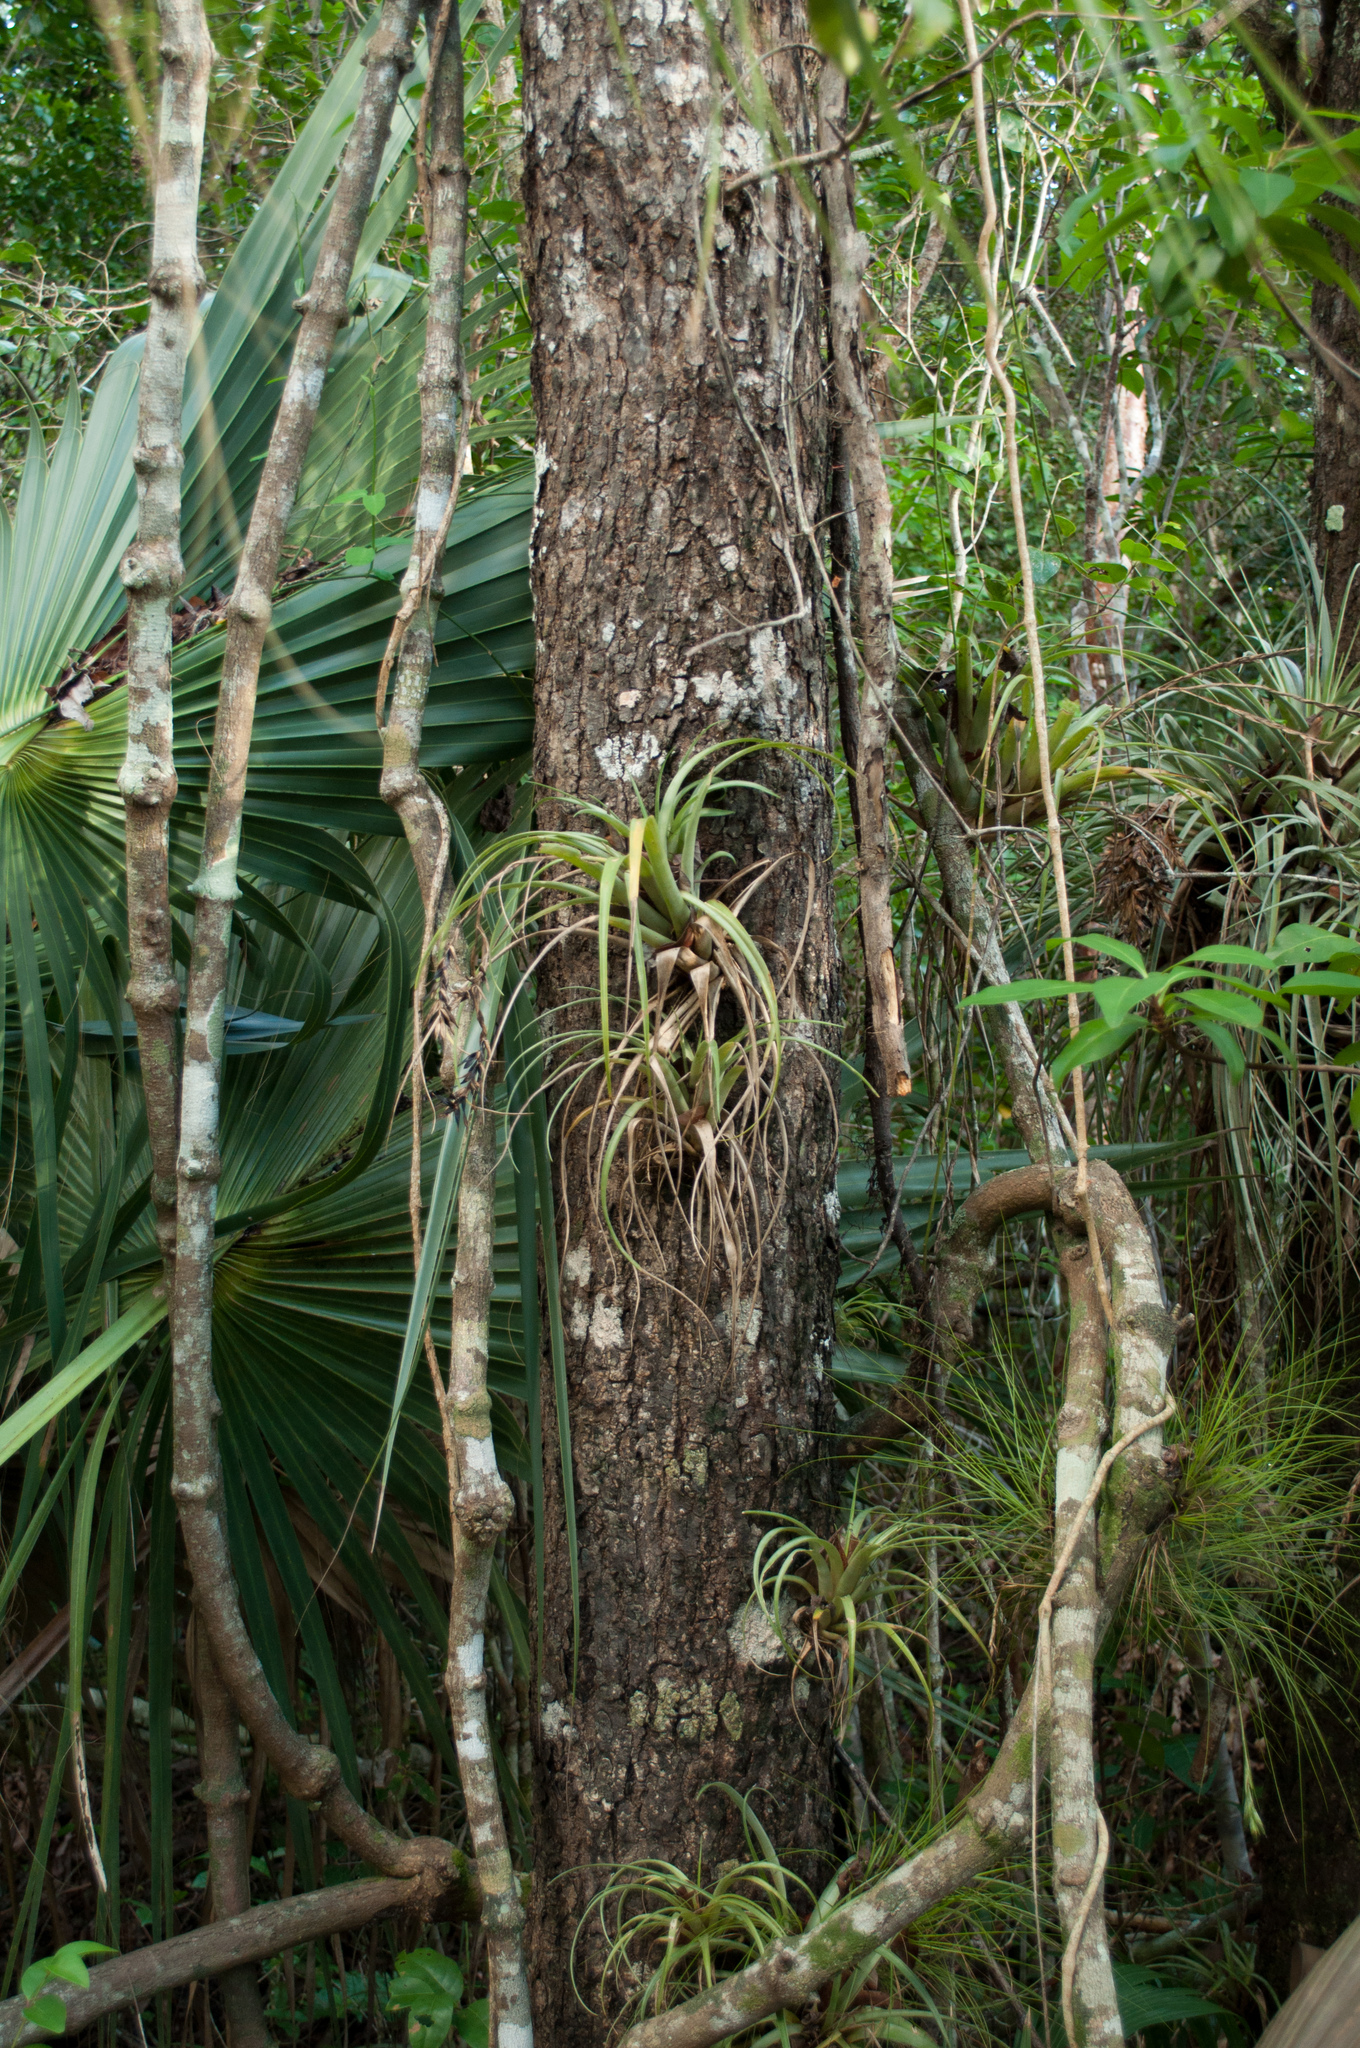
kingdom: Plantae
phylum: Tracheophyta
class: Liliopsida
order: Poales
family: Bromeliaceae
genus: Tillandsia
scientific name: Tillandsia variabilis
